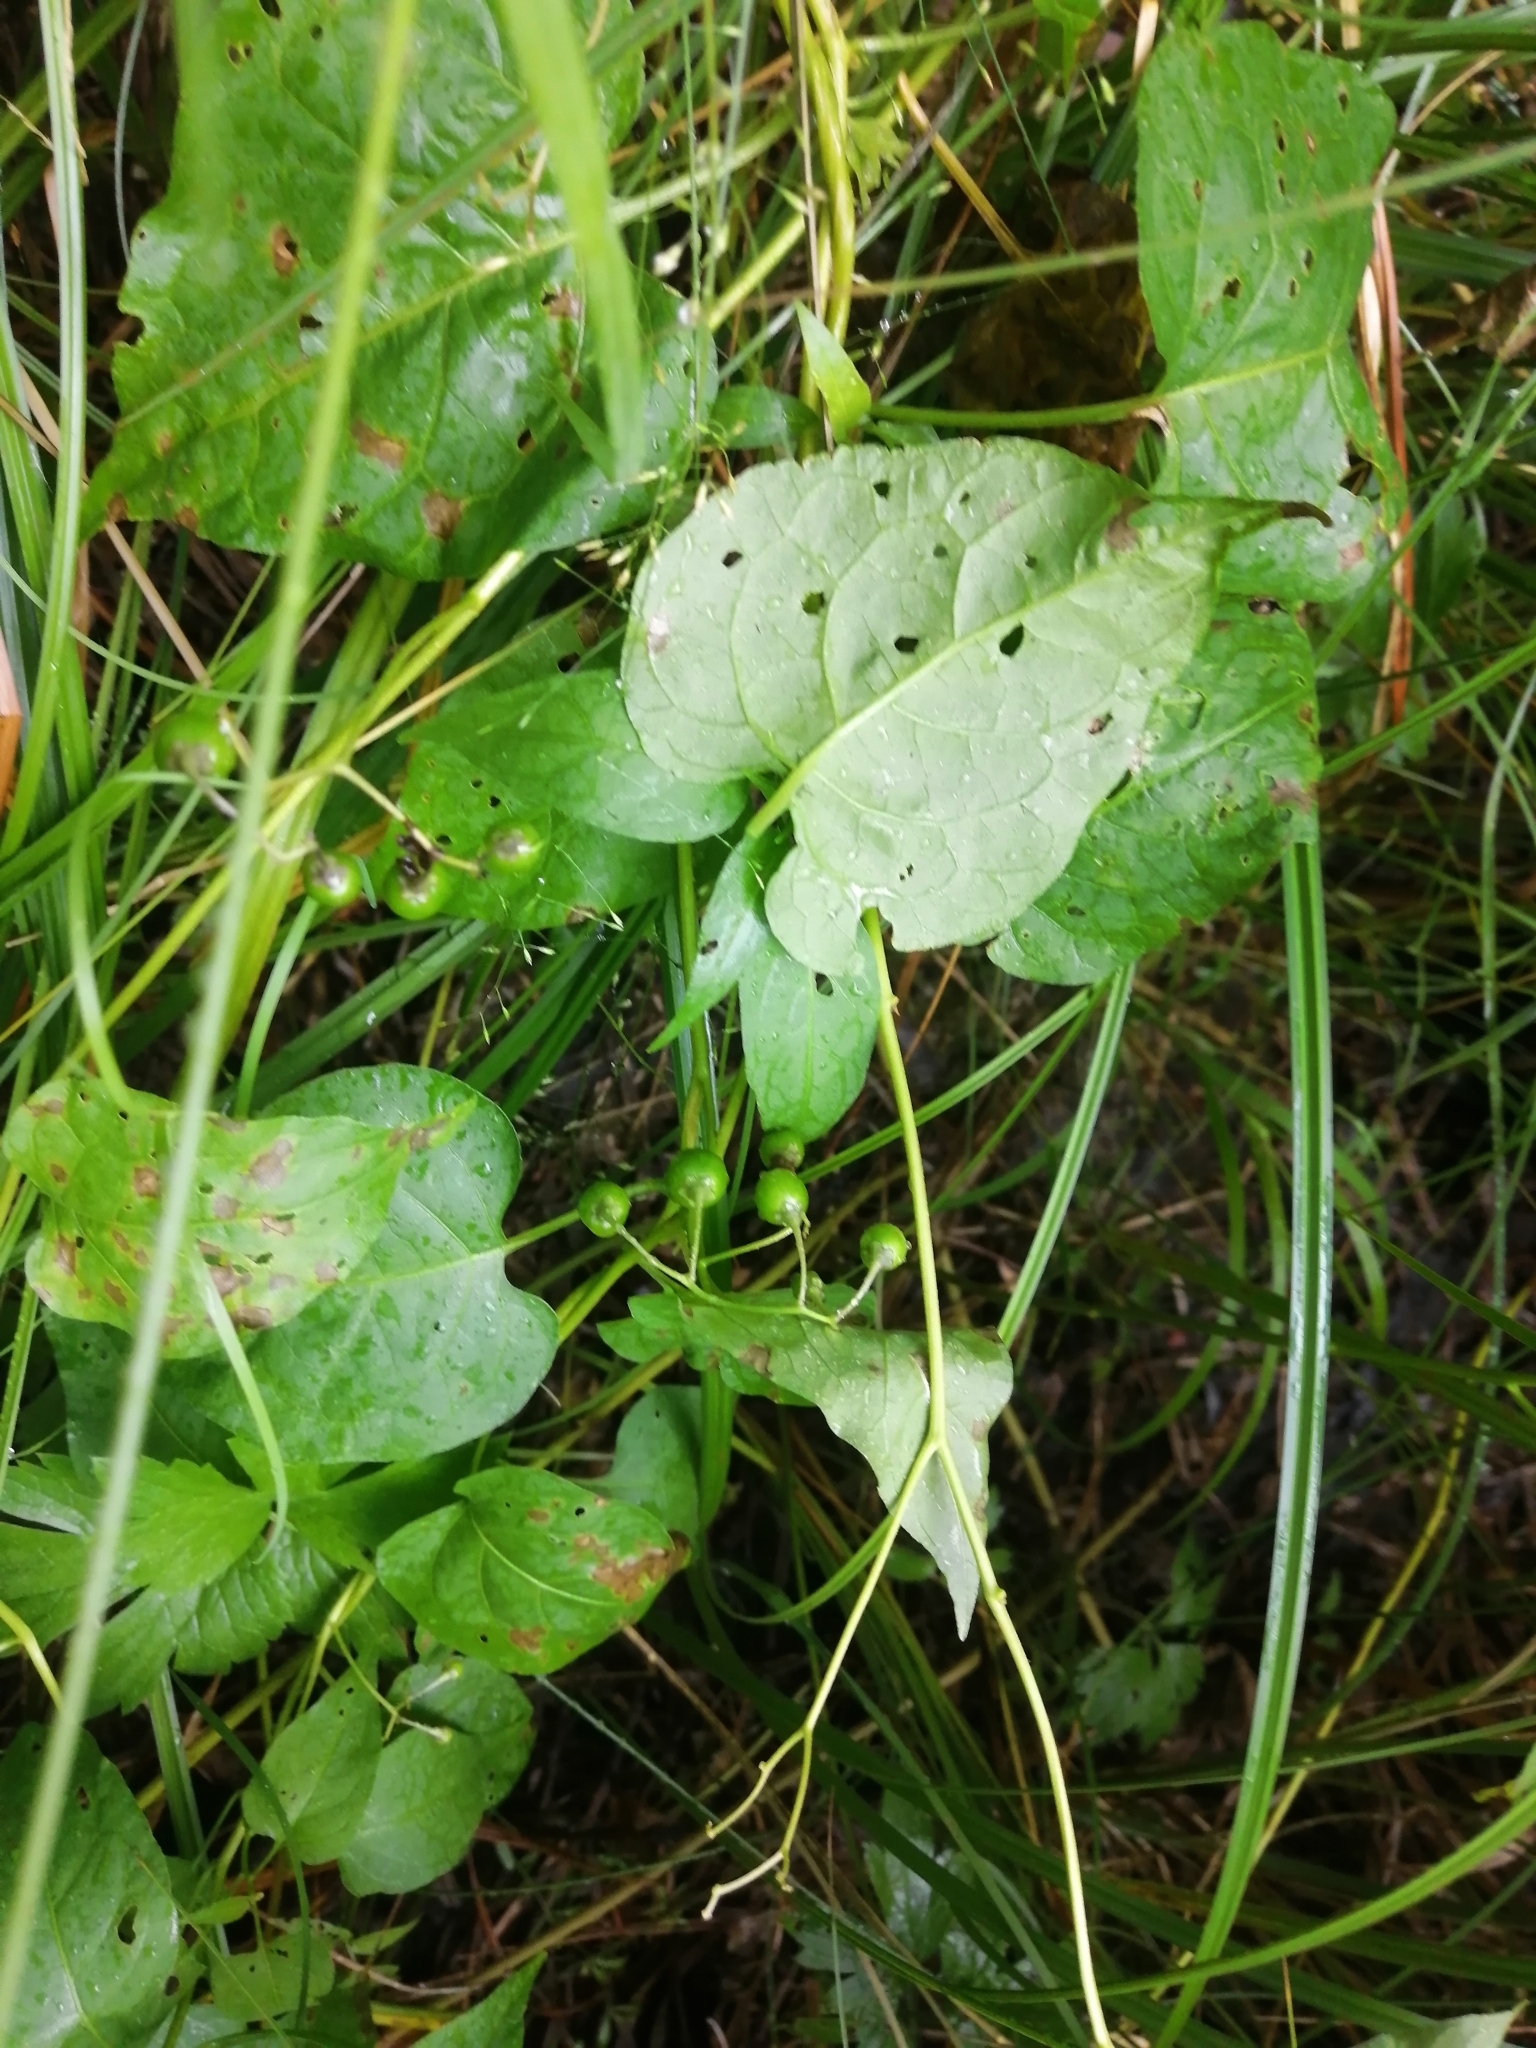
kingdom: Plantae
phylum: Tracheophyta
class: Magnoliopsida
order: Solanales
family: Solanaceae
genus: Solanum
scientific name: Solanum dulcamara
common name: Climbing nightshade
